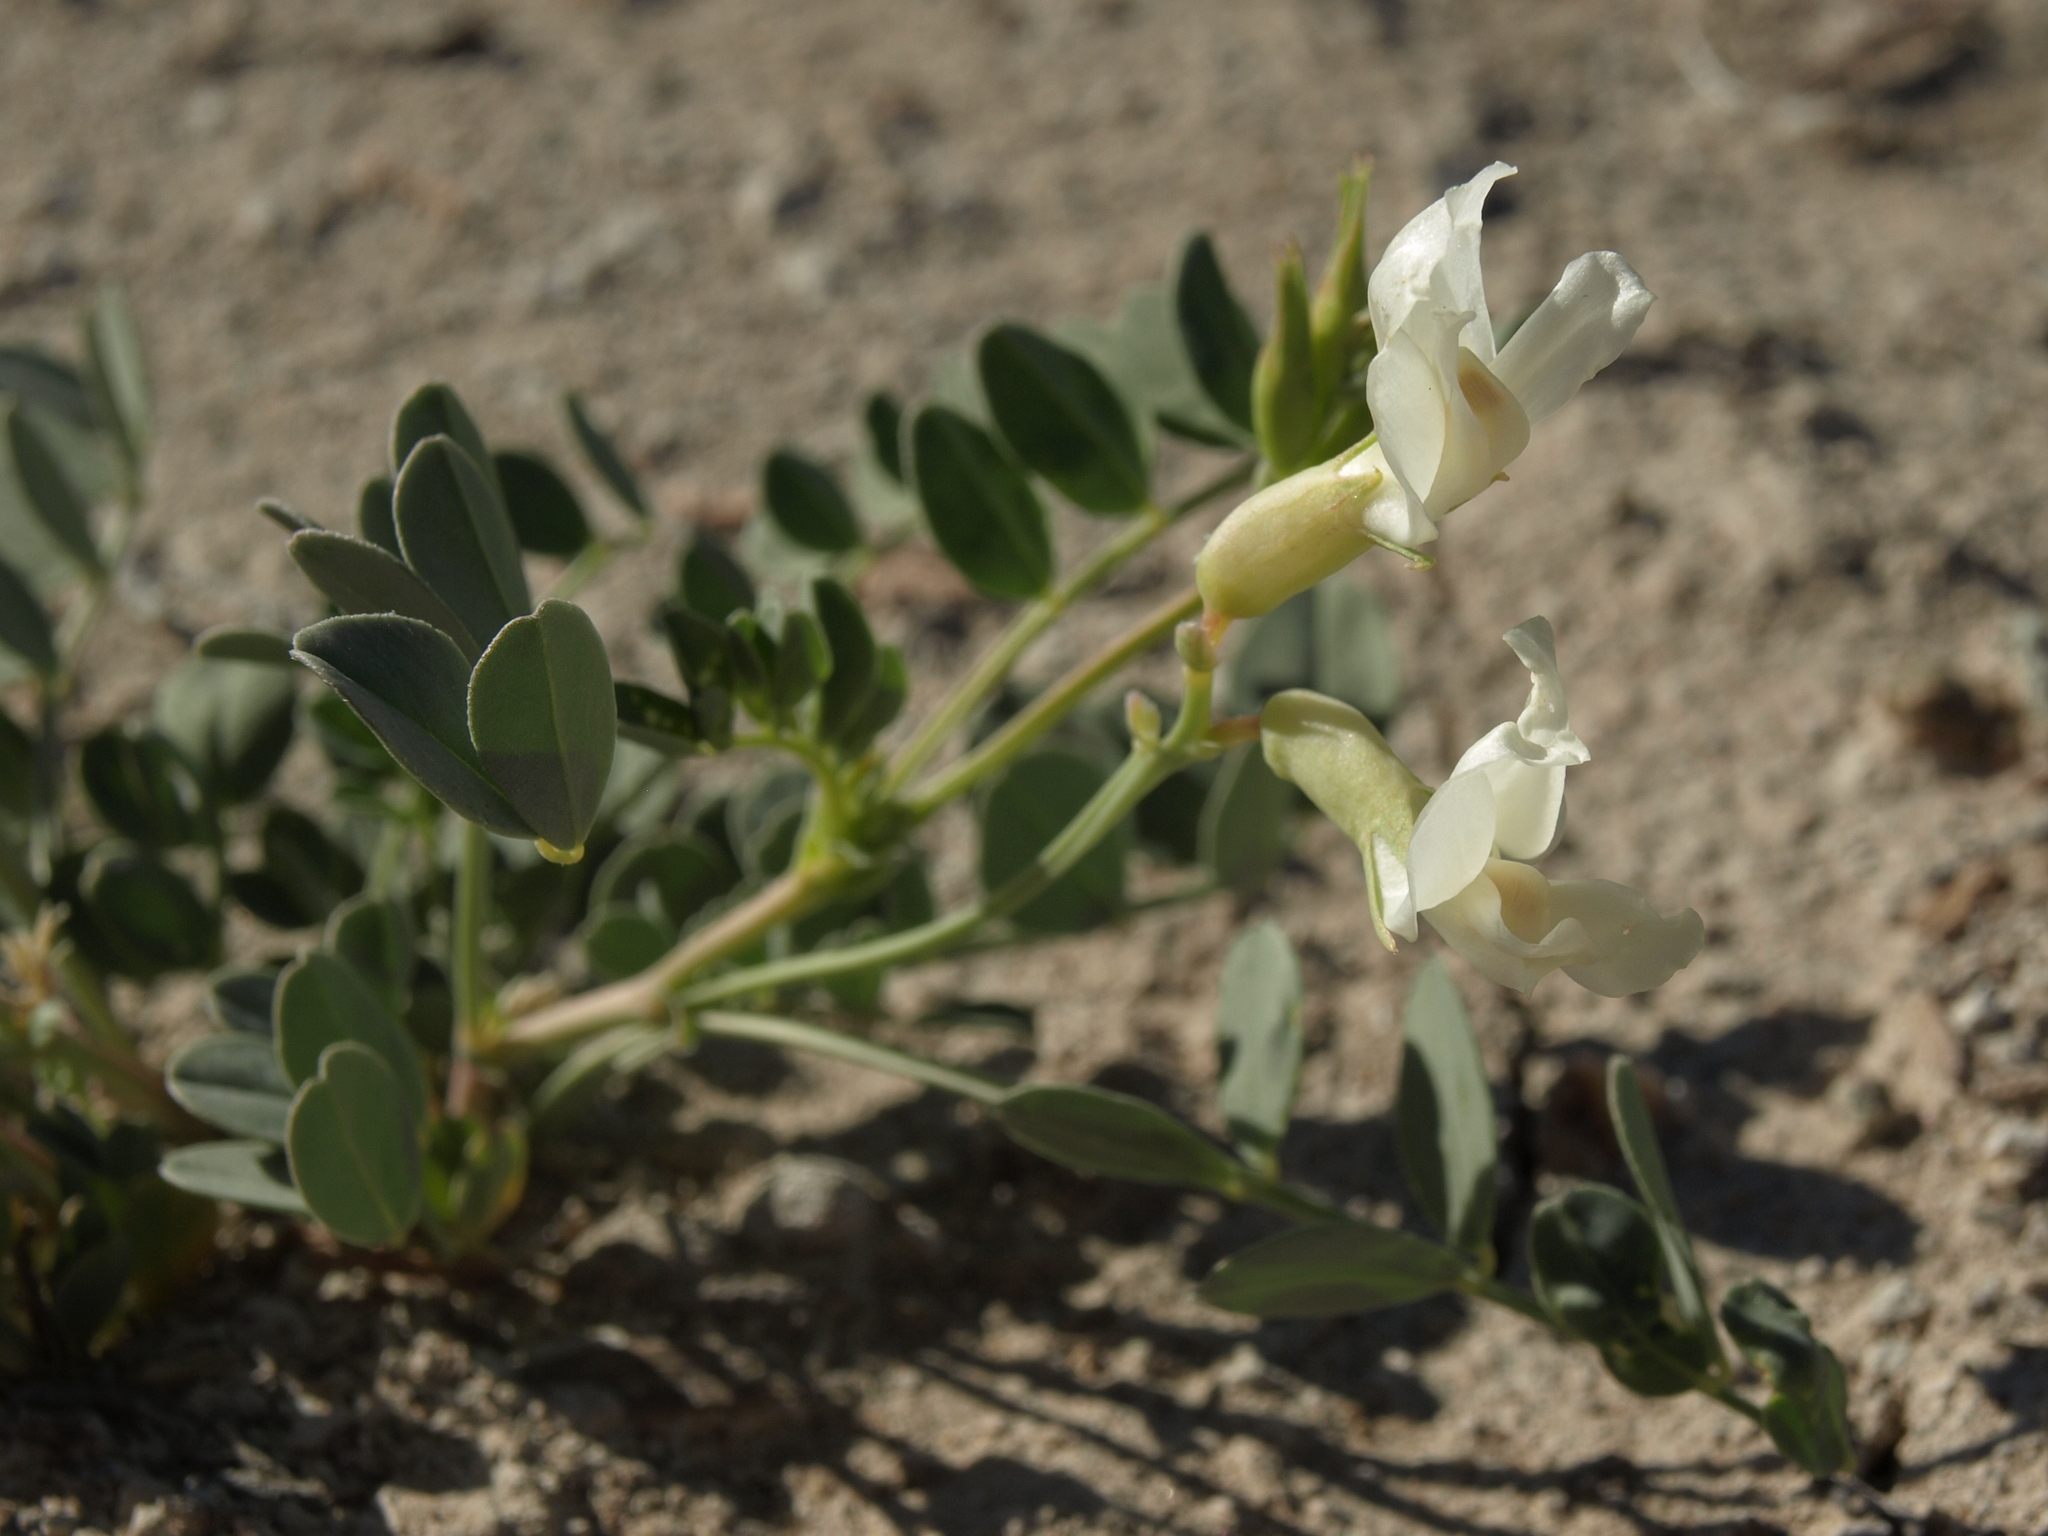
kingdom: Plantae
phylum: Tracheophyta
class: Magnoliopsida
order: Fabales
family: Fabaceae
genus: Astragalus
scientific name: Astragalus oophorus
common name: Egg milkvetch
